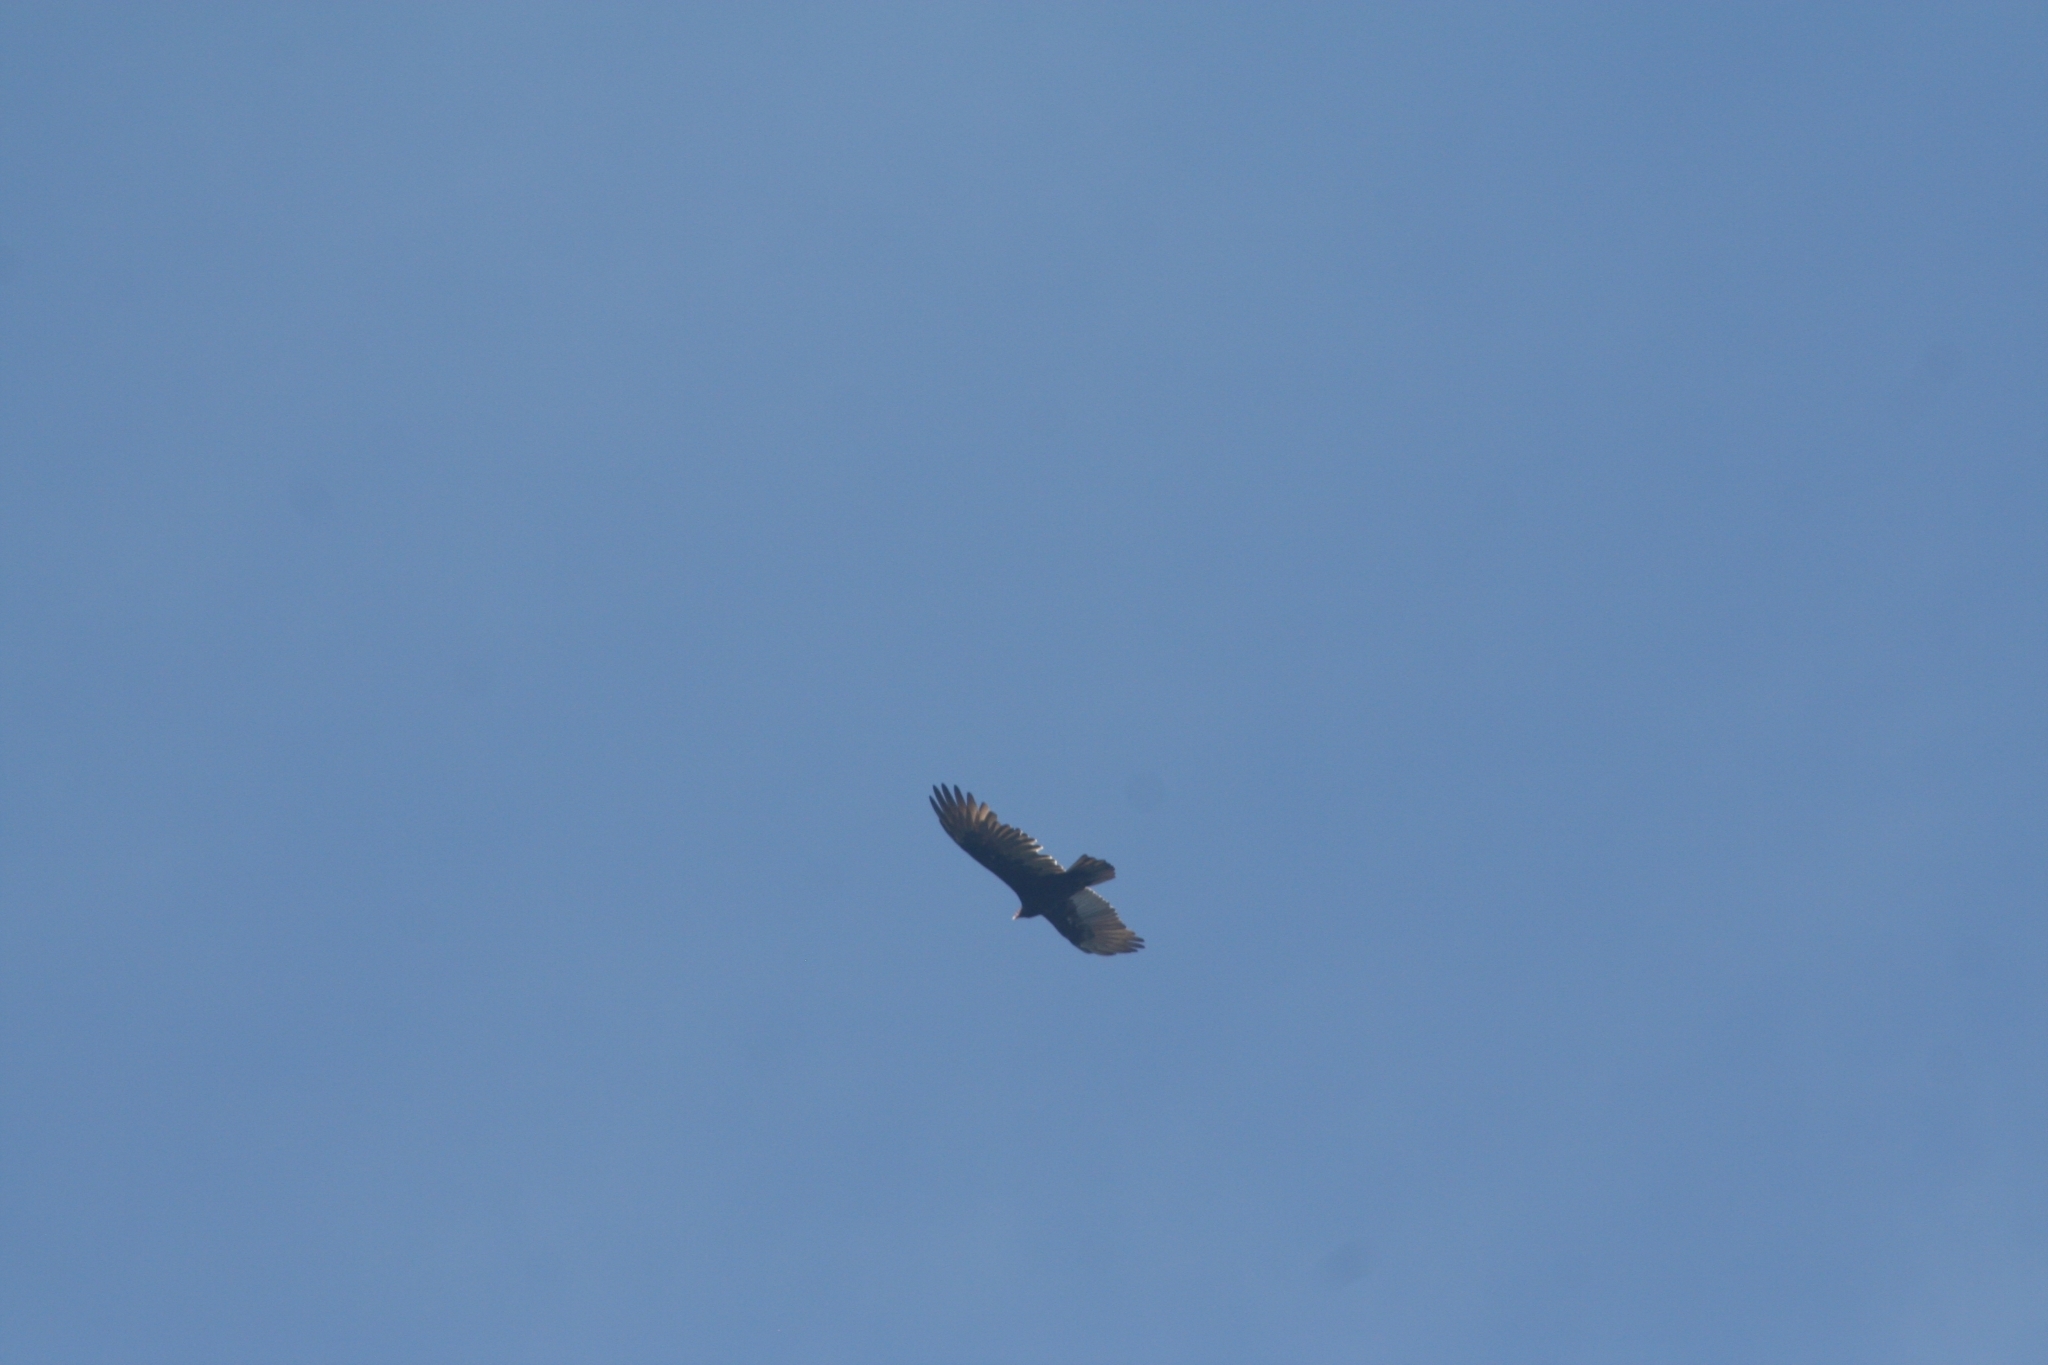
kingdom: Animalia
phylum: Chordata
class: Aves
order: Accipitriformes
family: Cathartidae
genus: Cathartes
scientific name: Cathartes aura
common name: Turkey vulture
